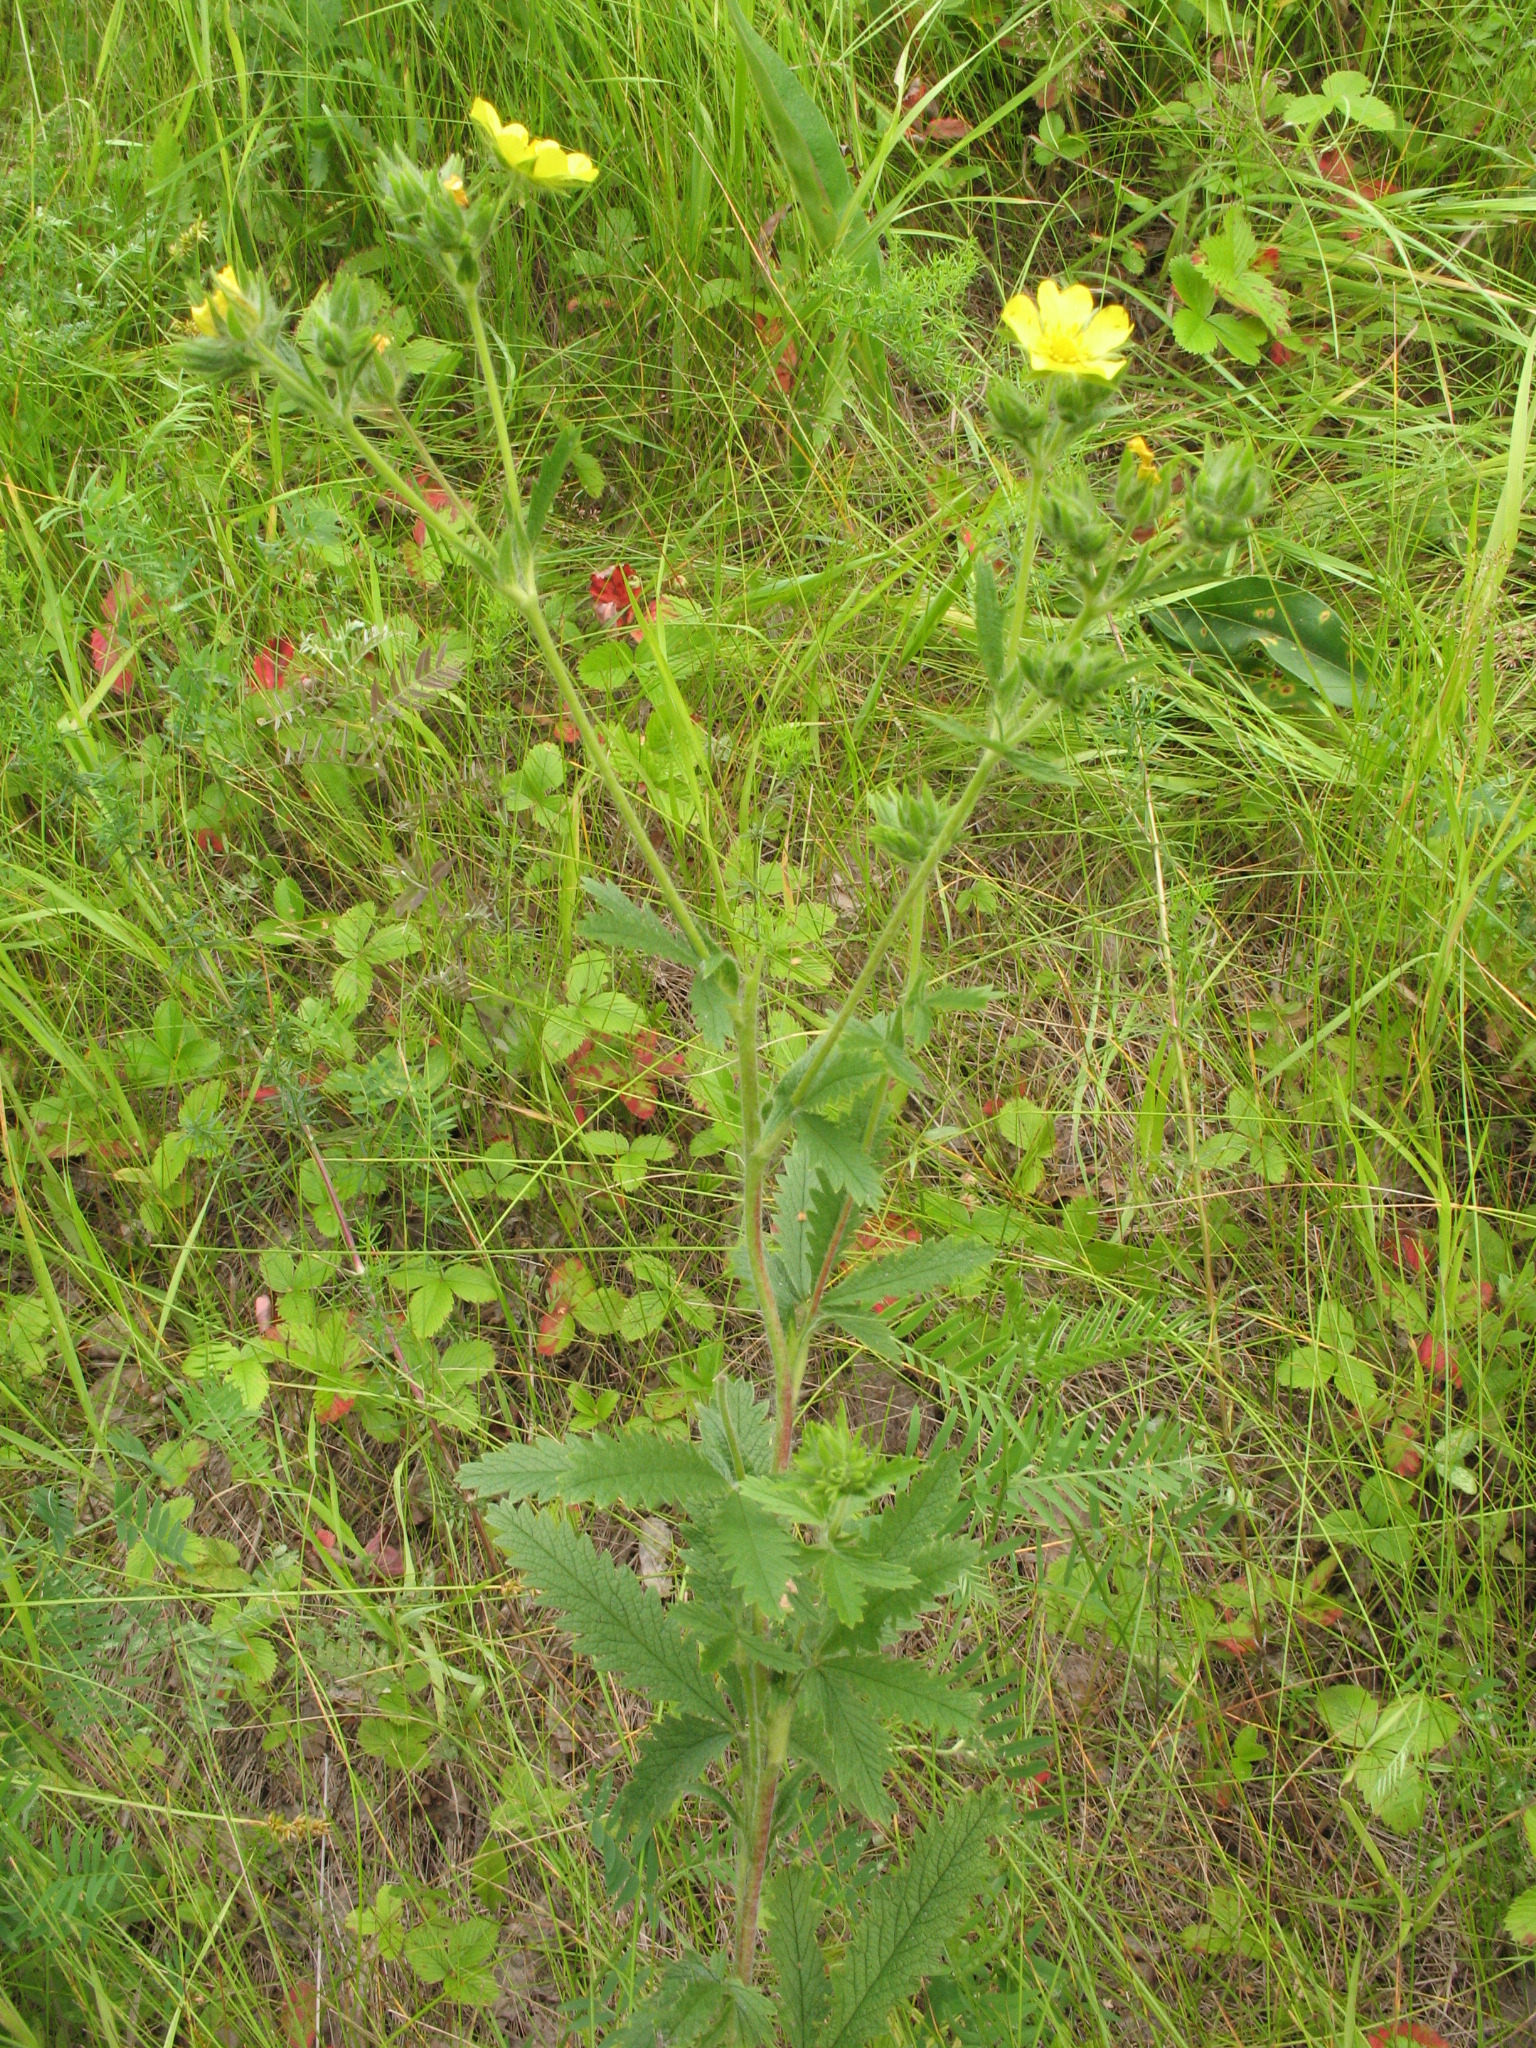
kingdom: Plantae
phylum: Tracheophyta
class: Magnoliopsida
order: Rosales
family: Rosaceae
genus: Potentilla
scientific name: Potentilla recta
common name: Sulphur cinquefoil
